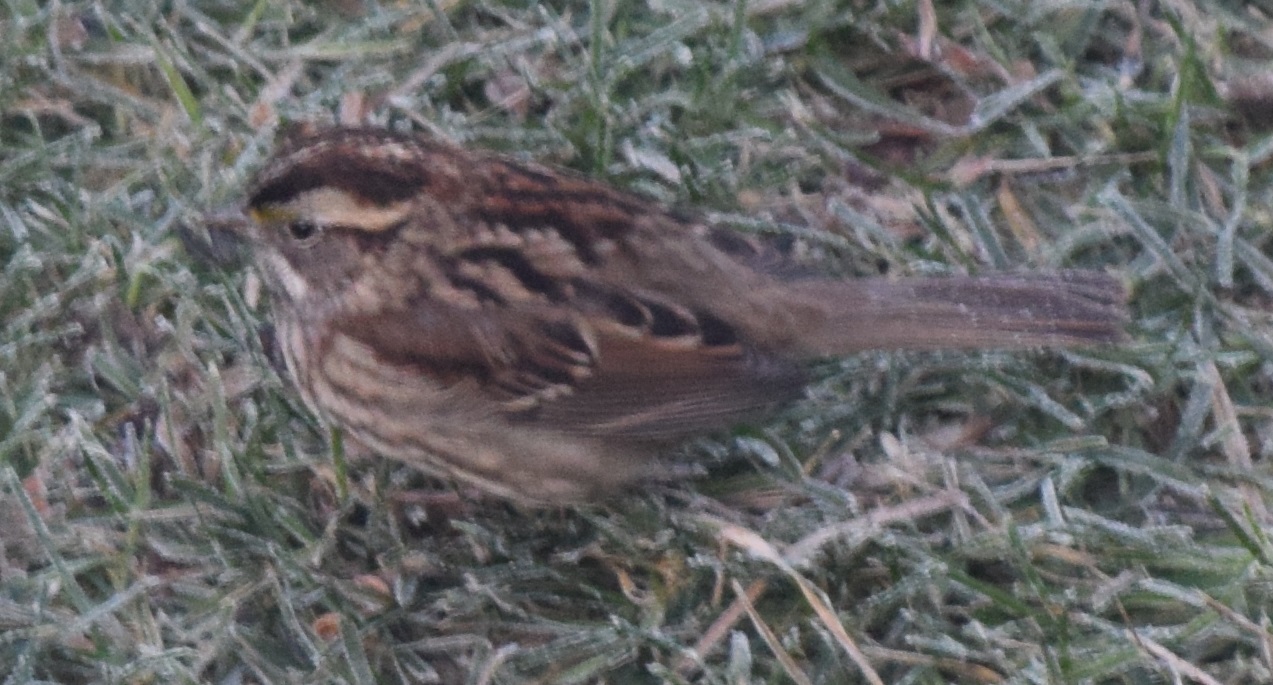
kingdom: Animalia
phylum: Chordata
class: Aves
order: Passeriformes
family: Passerellidae
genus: Zonotrichia
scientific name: Zonotrichia albicollis
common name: White-throated sparrow
